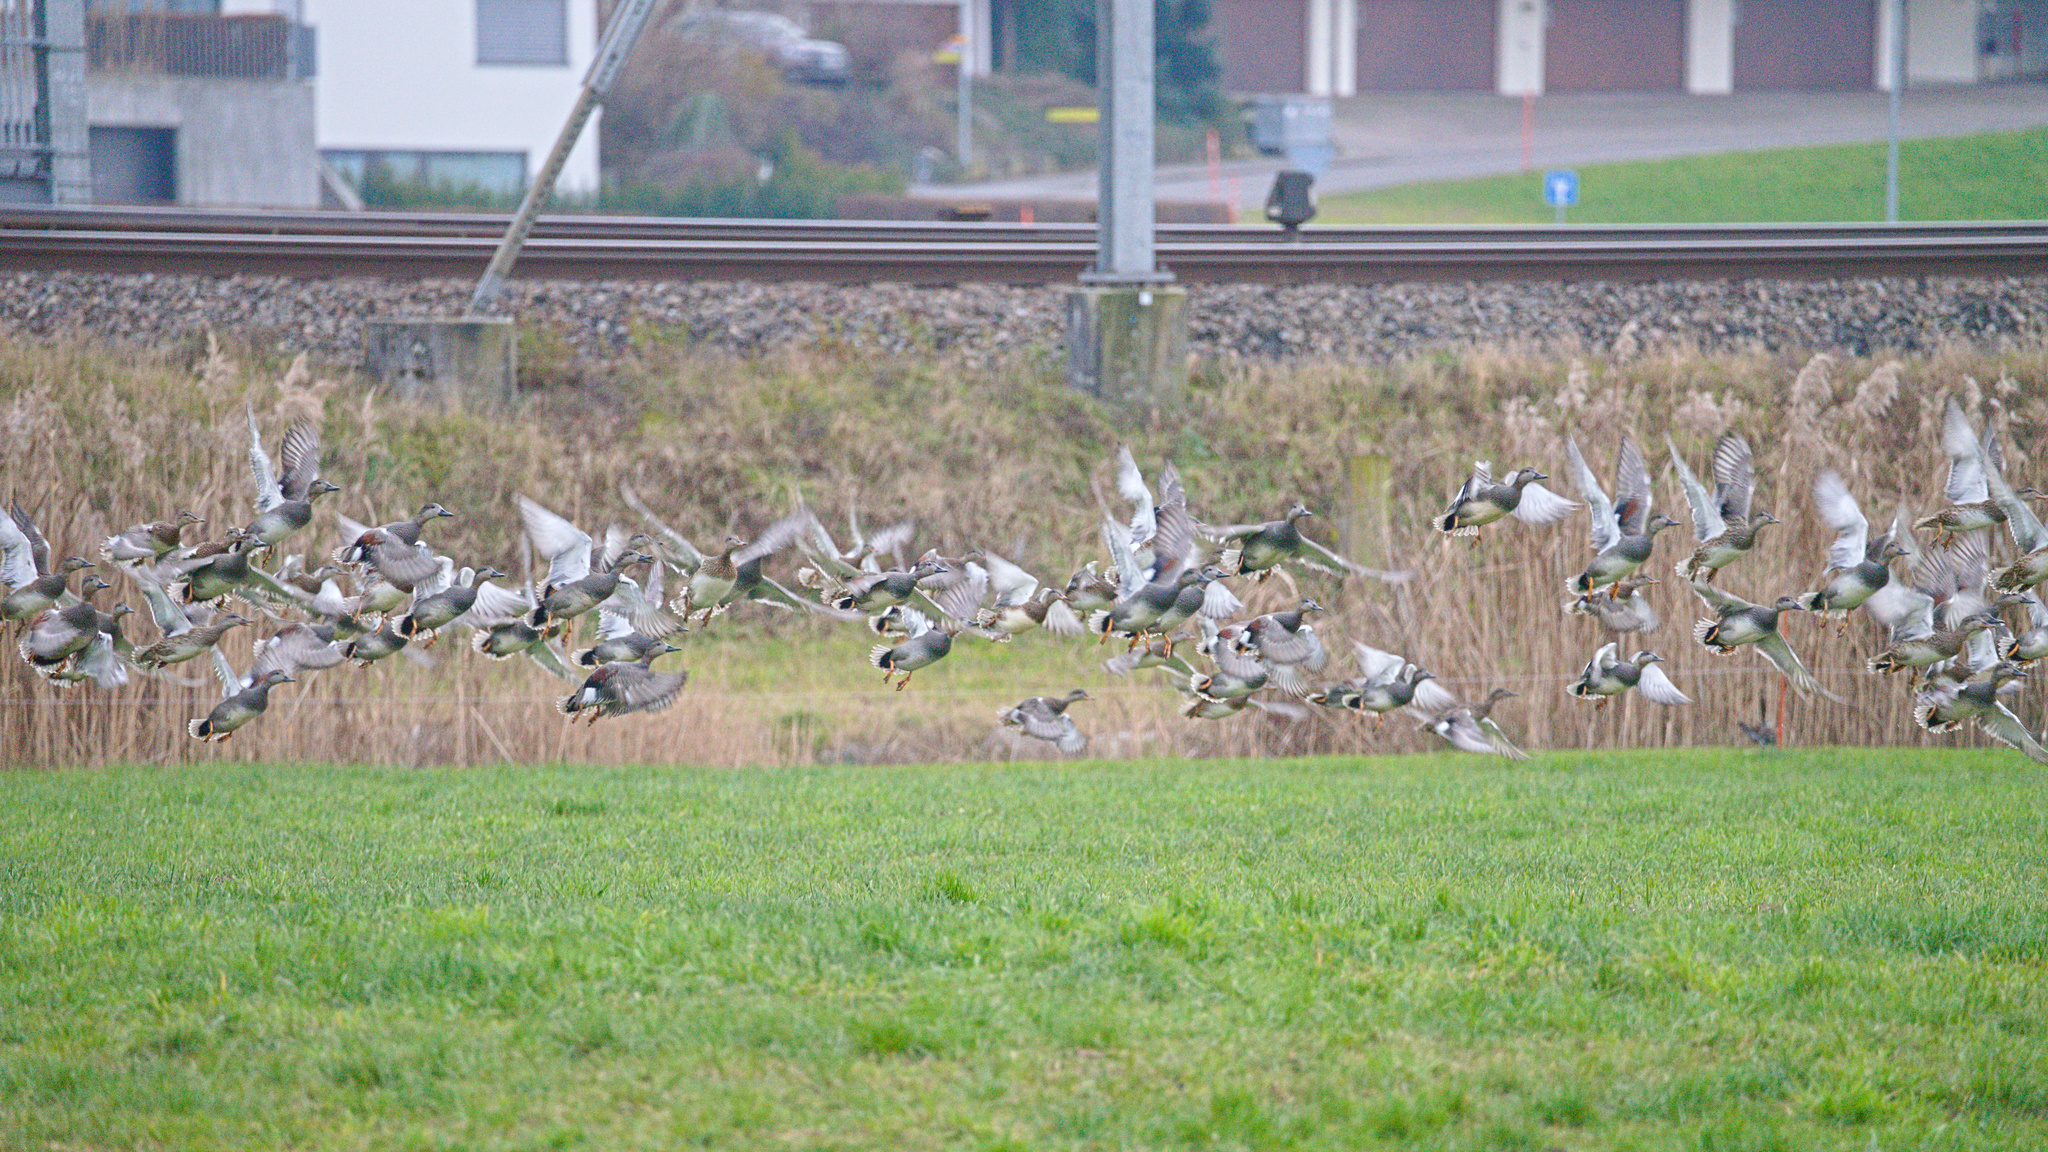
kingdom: Animalia
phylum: Chordata
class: Aves
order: Anseriformes
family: Anatidae
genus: Mareca
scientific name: Mareca strepera
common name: Gadwall
